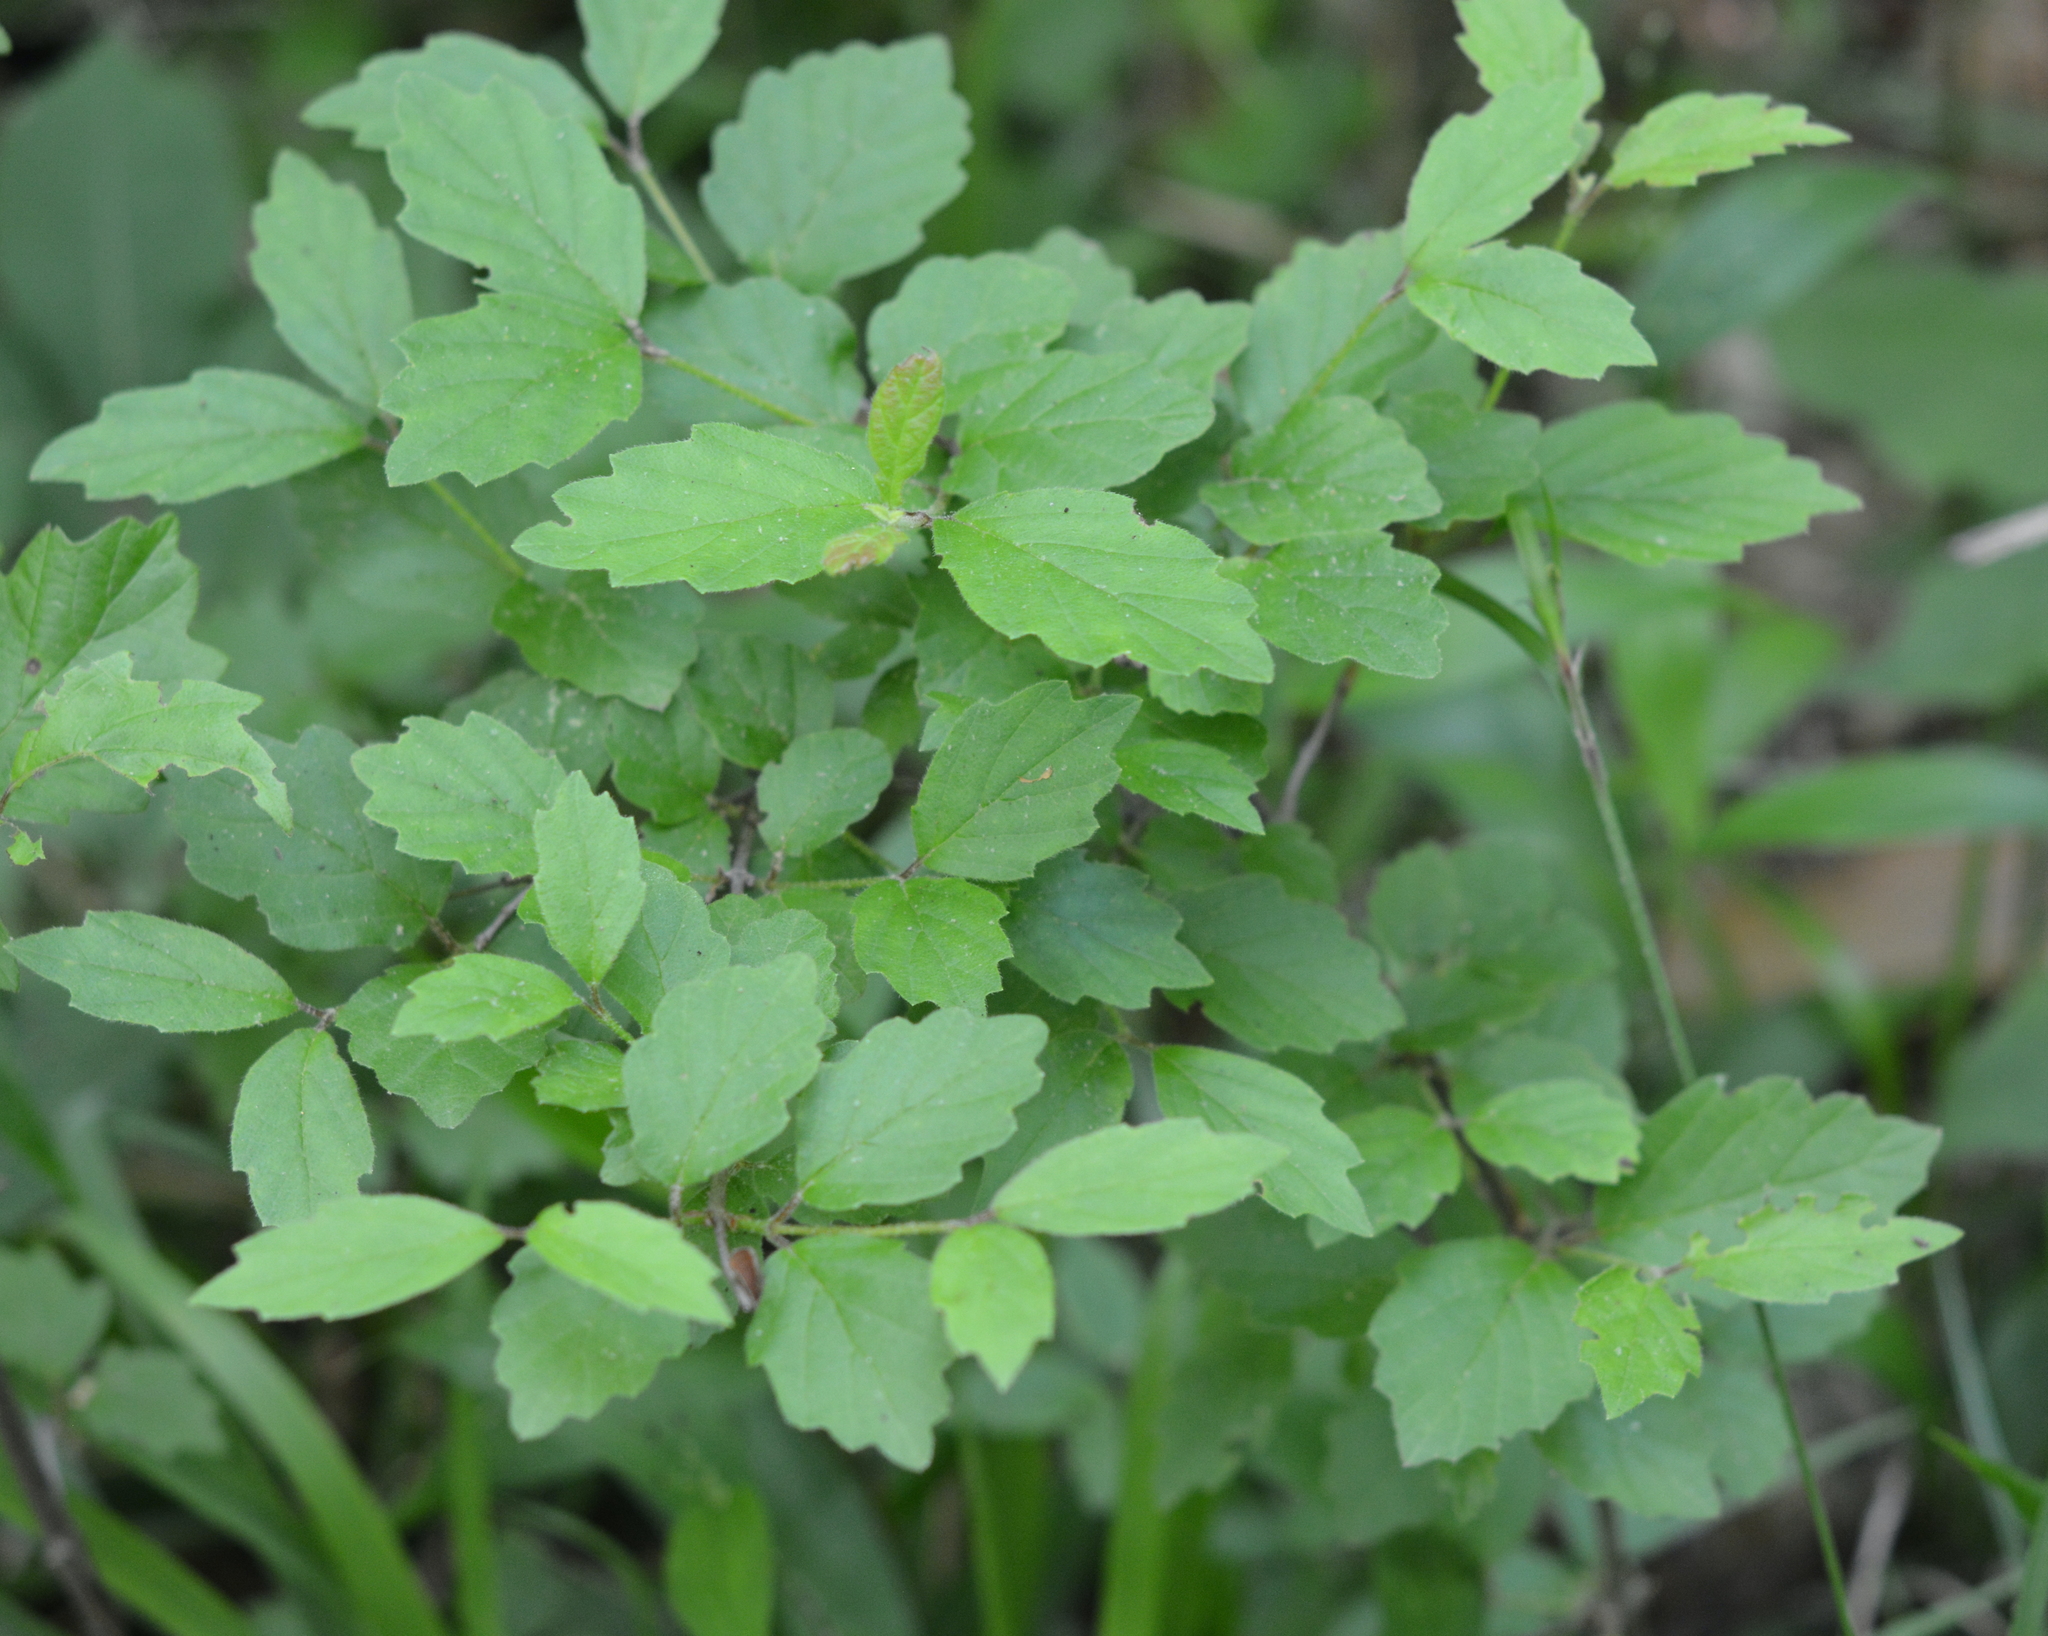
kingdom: Plantae
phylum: Tracheophyta
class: Magnoliopsida
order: Dipsacales
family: Viburnaceae
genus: Viburnum
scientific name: Viburnum scabrellum
